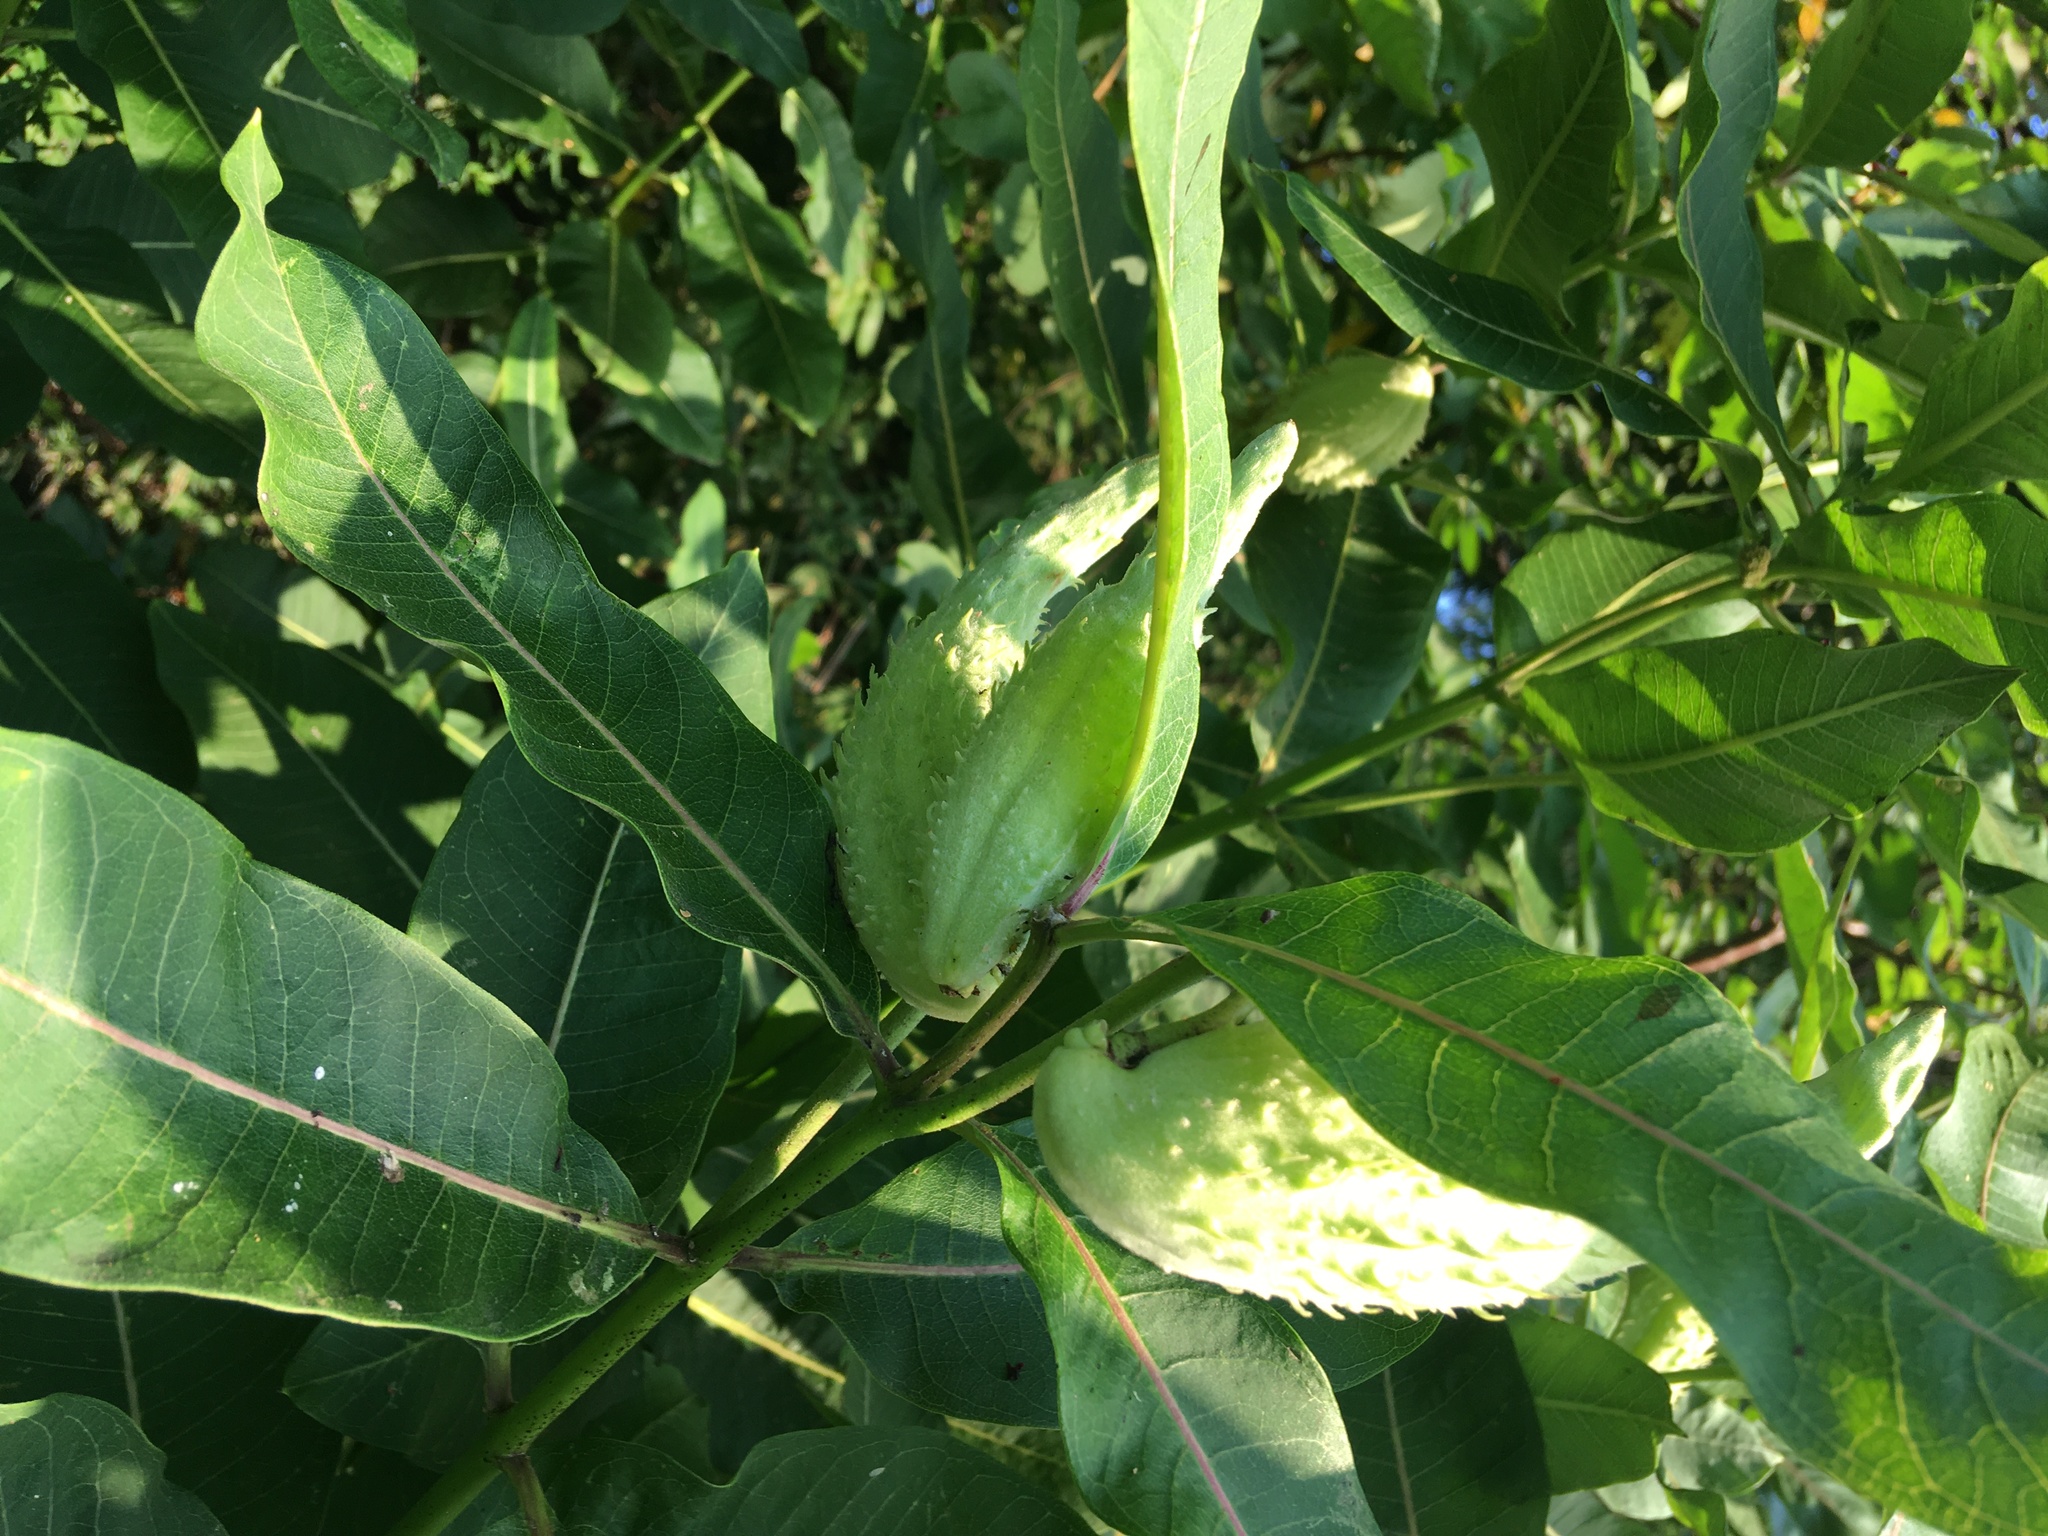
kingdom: Plantae
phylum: Tracheophyta
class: Magnoliopsida
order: Gentianales
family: Apocynaceae
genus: Asclepias
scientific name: Asclepias syriaca
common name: Common milkweed
